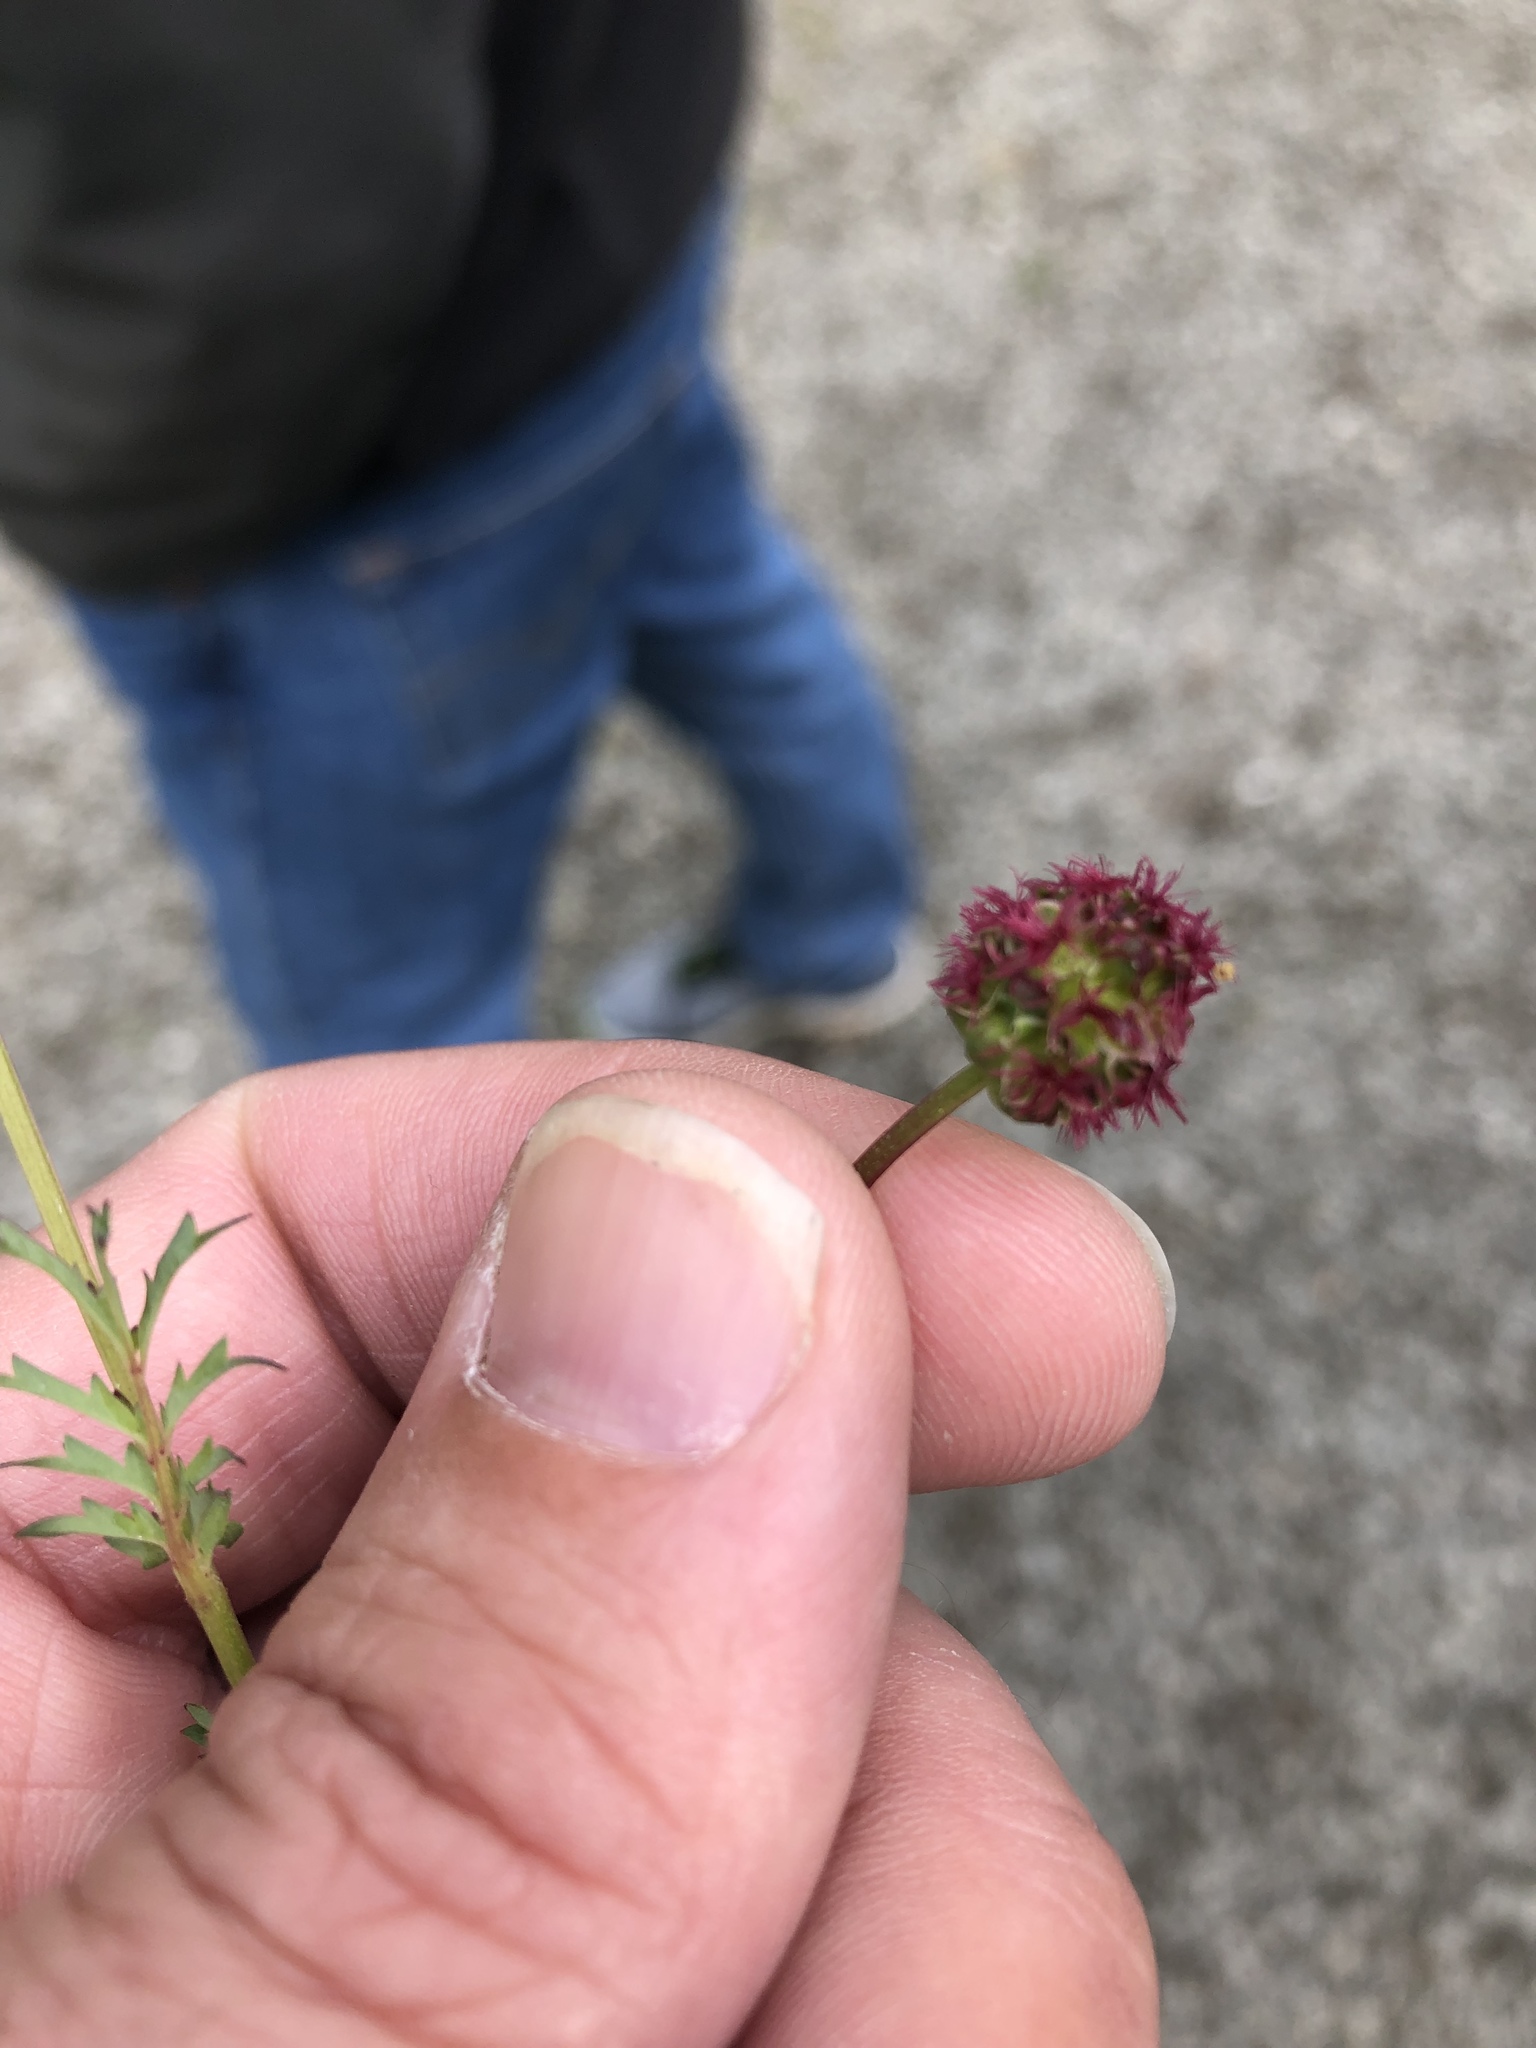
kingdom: Plantae
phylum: Tracheophyta
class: Magnoliopsida
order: Rosales
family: Rosaceae
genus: Poterium
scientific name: Poterium sanguisorba
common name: Salad burnet
